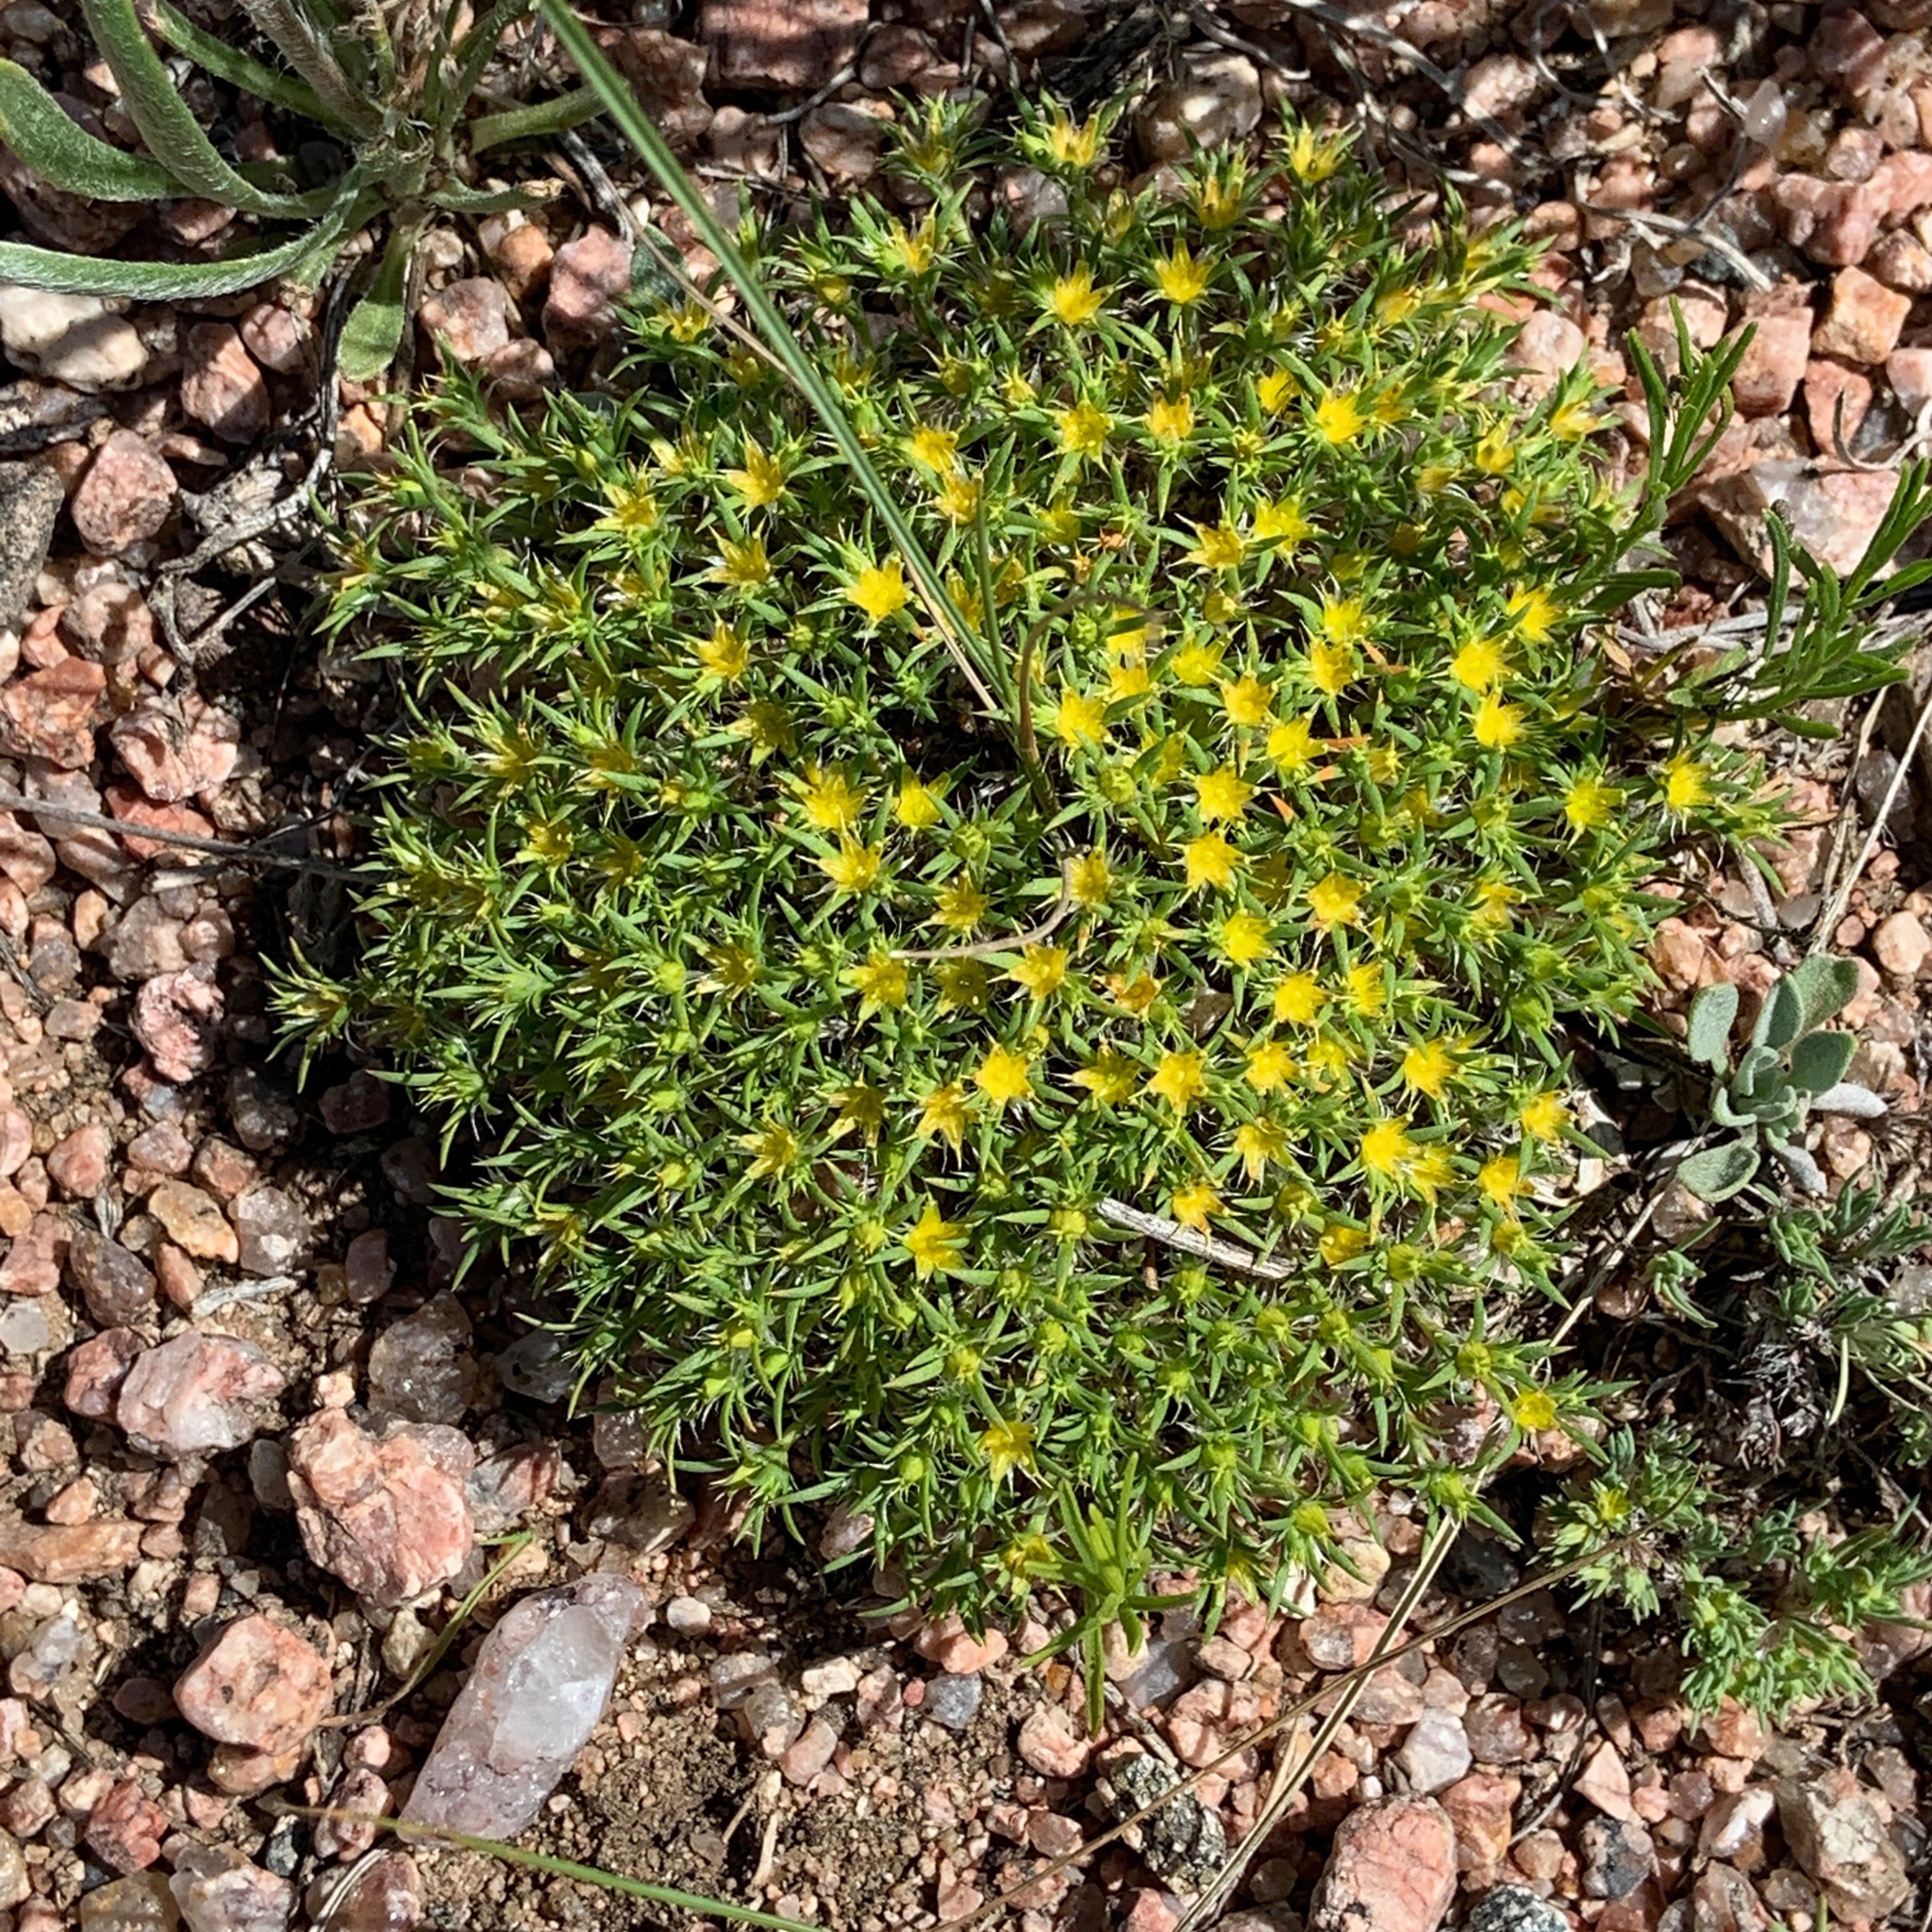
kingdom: Plantae
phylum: Tracheophyta
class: Magnoliopsida
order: Caryophyllales
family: Caryophyllaceae
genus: Paronychia
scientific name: Paronychia sessiliflora
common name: Creeping nailwort
